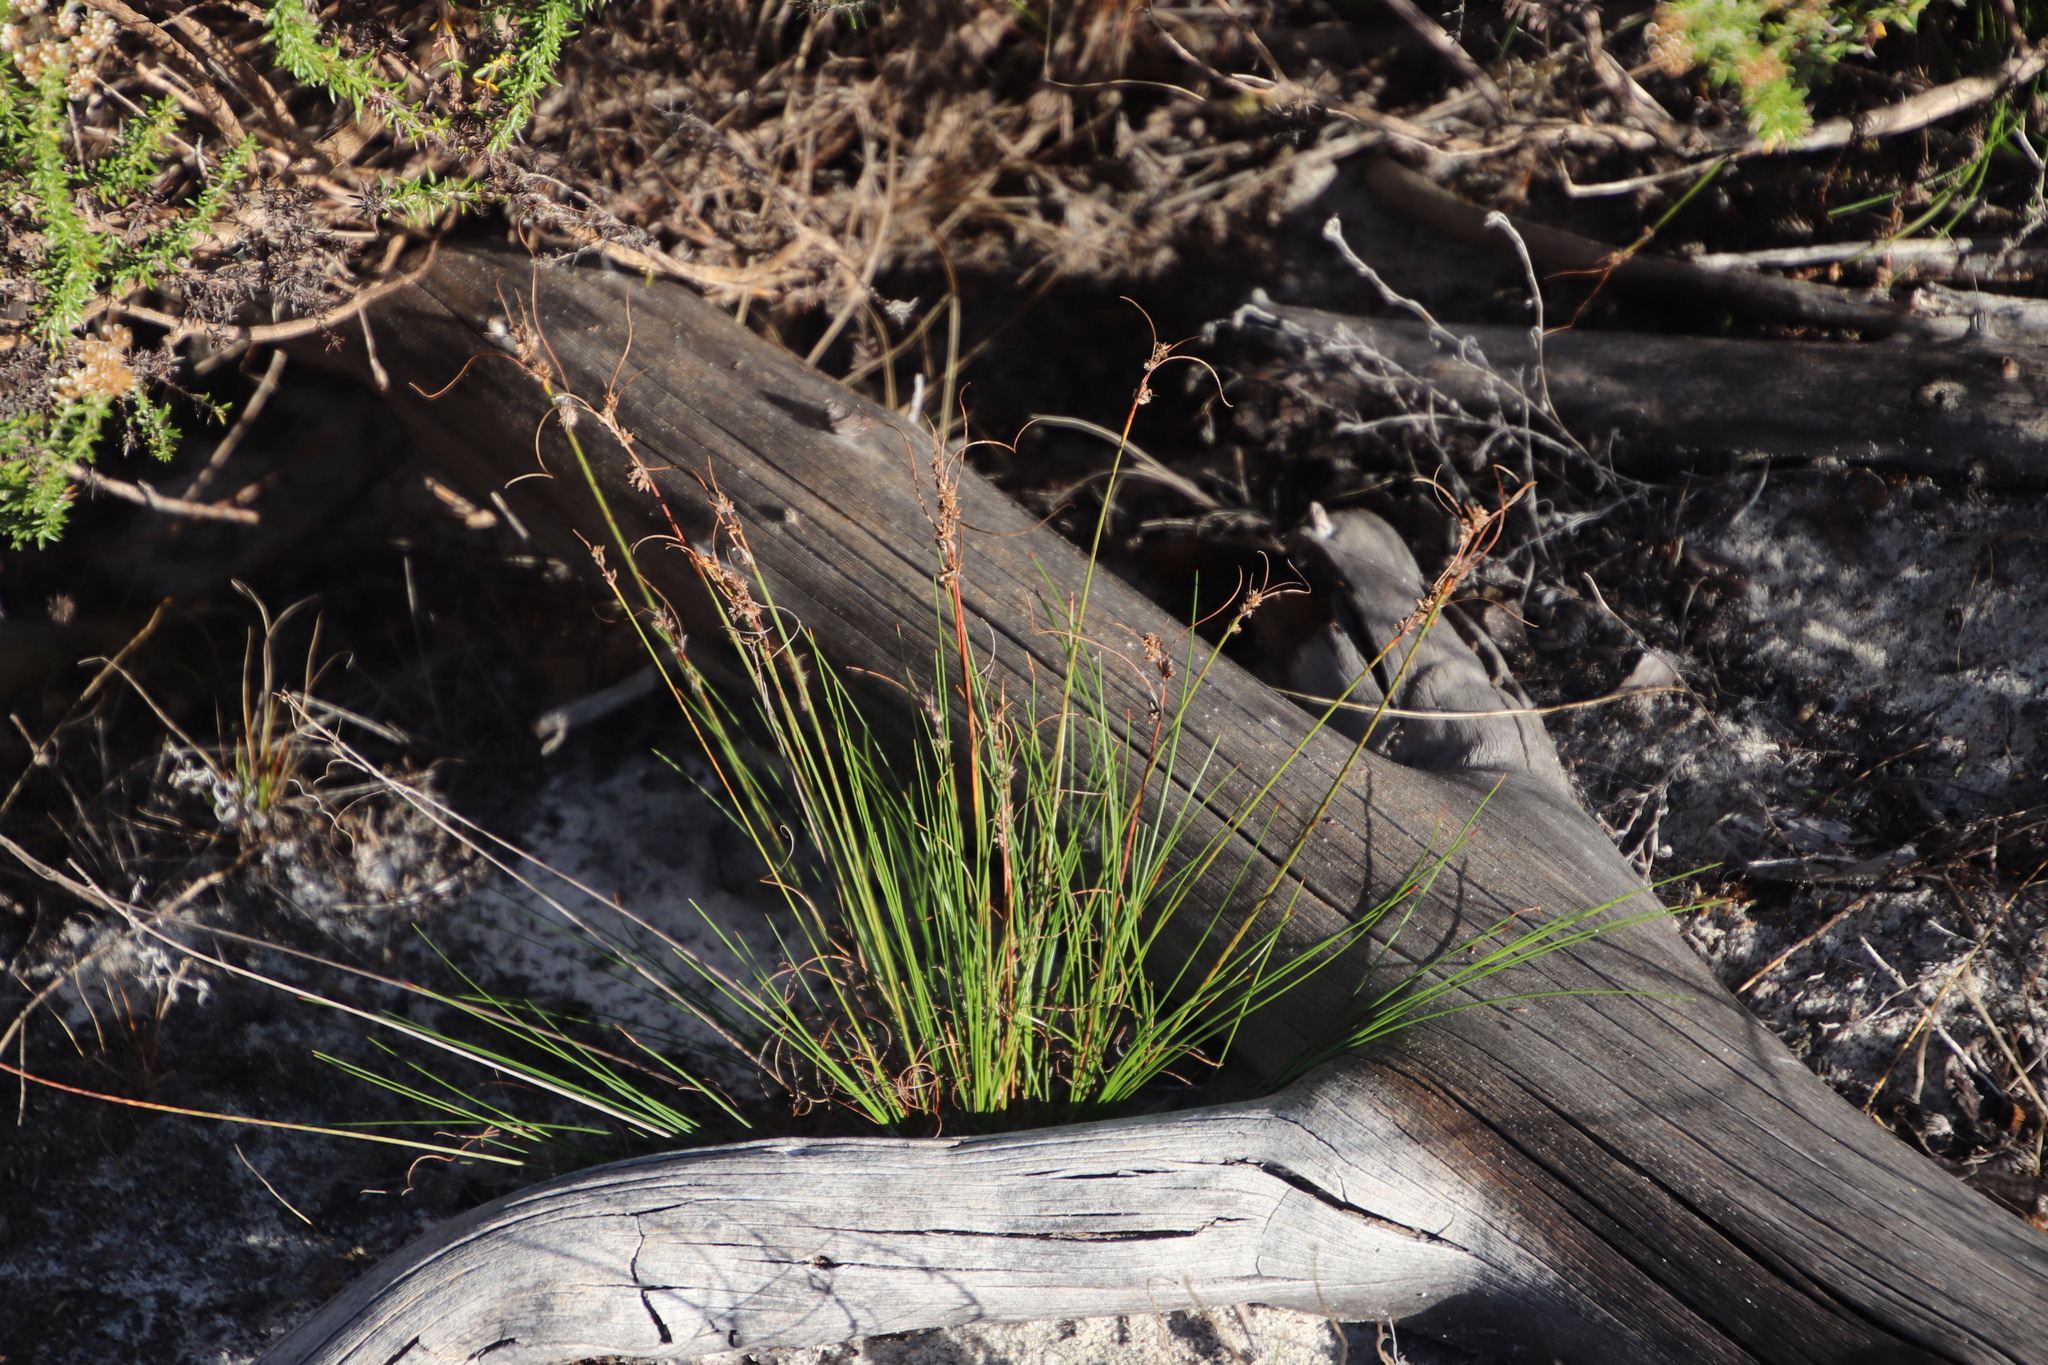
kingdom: Plantae
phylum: Tracheophyta
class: Liliopsida
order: Poales
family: Cyperaceae
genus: Ficinia
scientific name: Ficinia bulbosa
